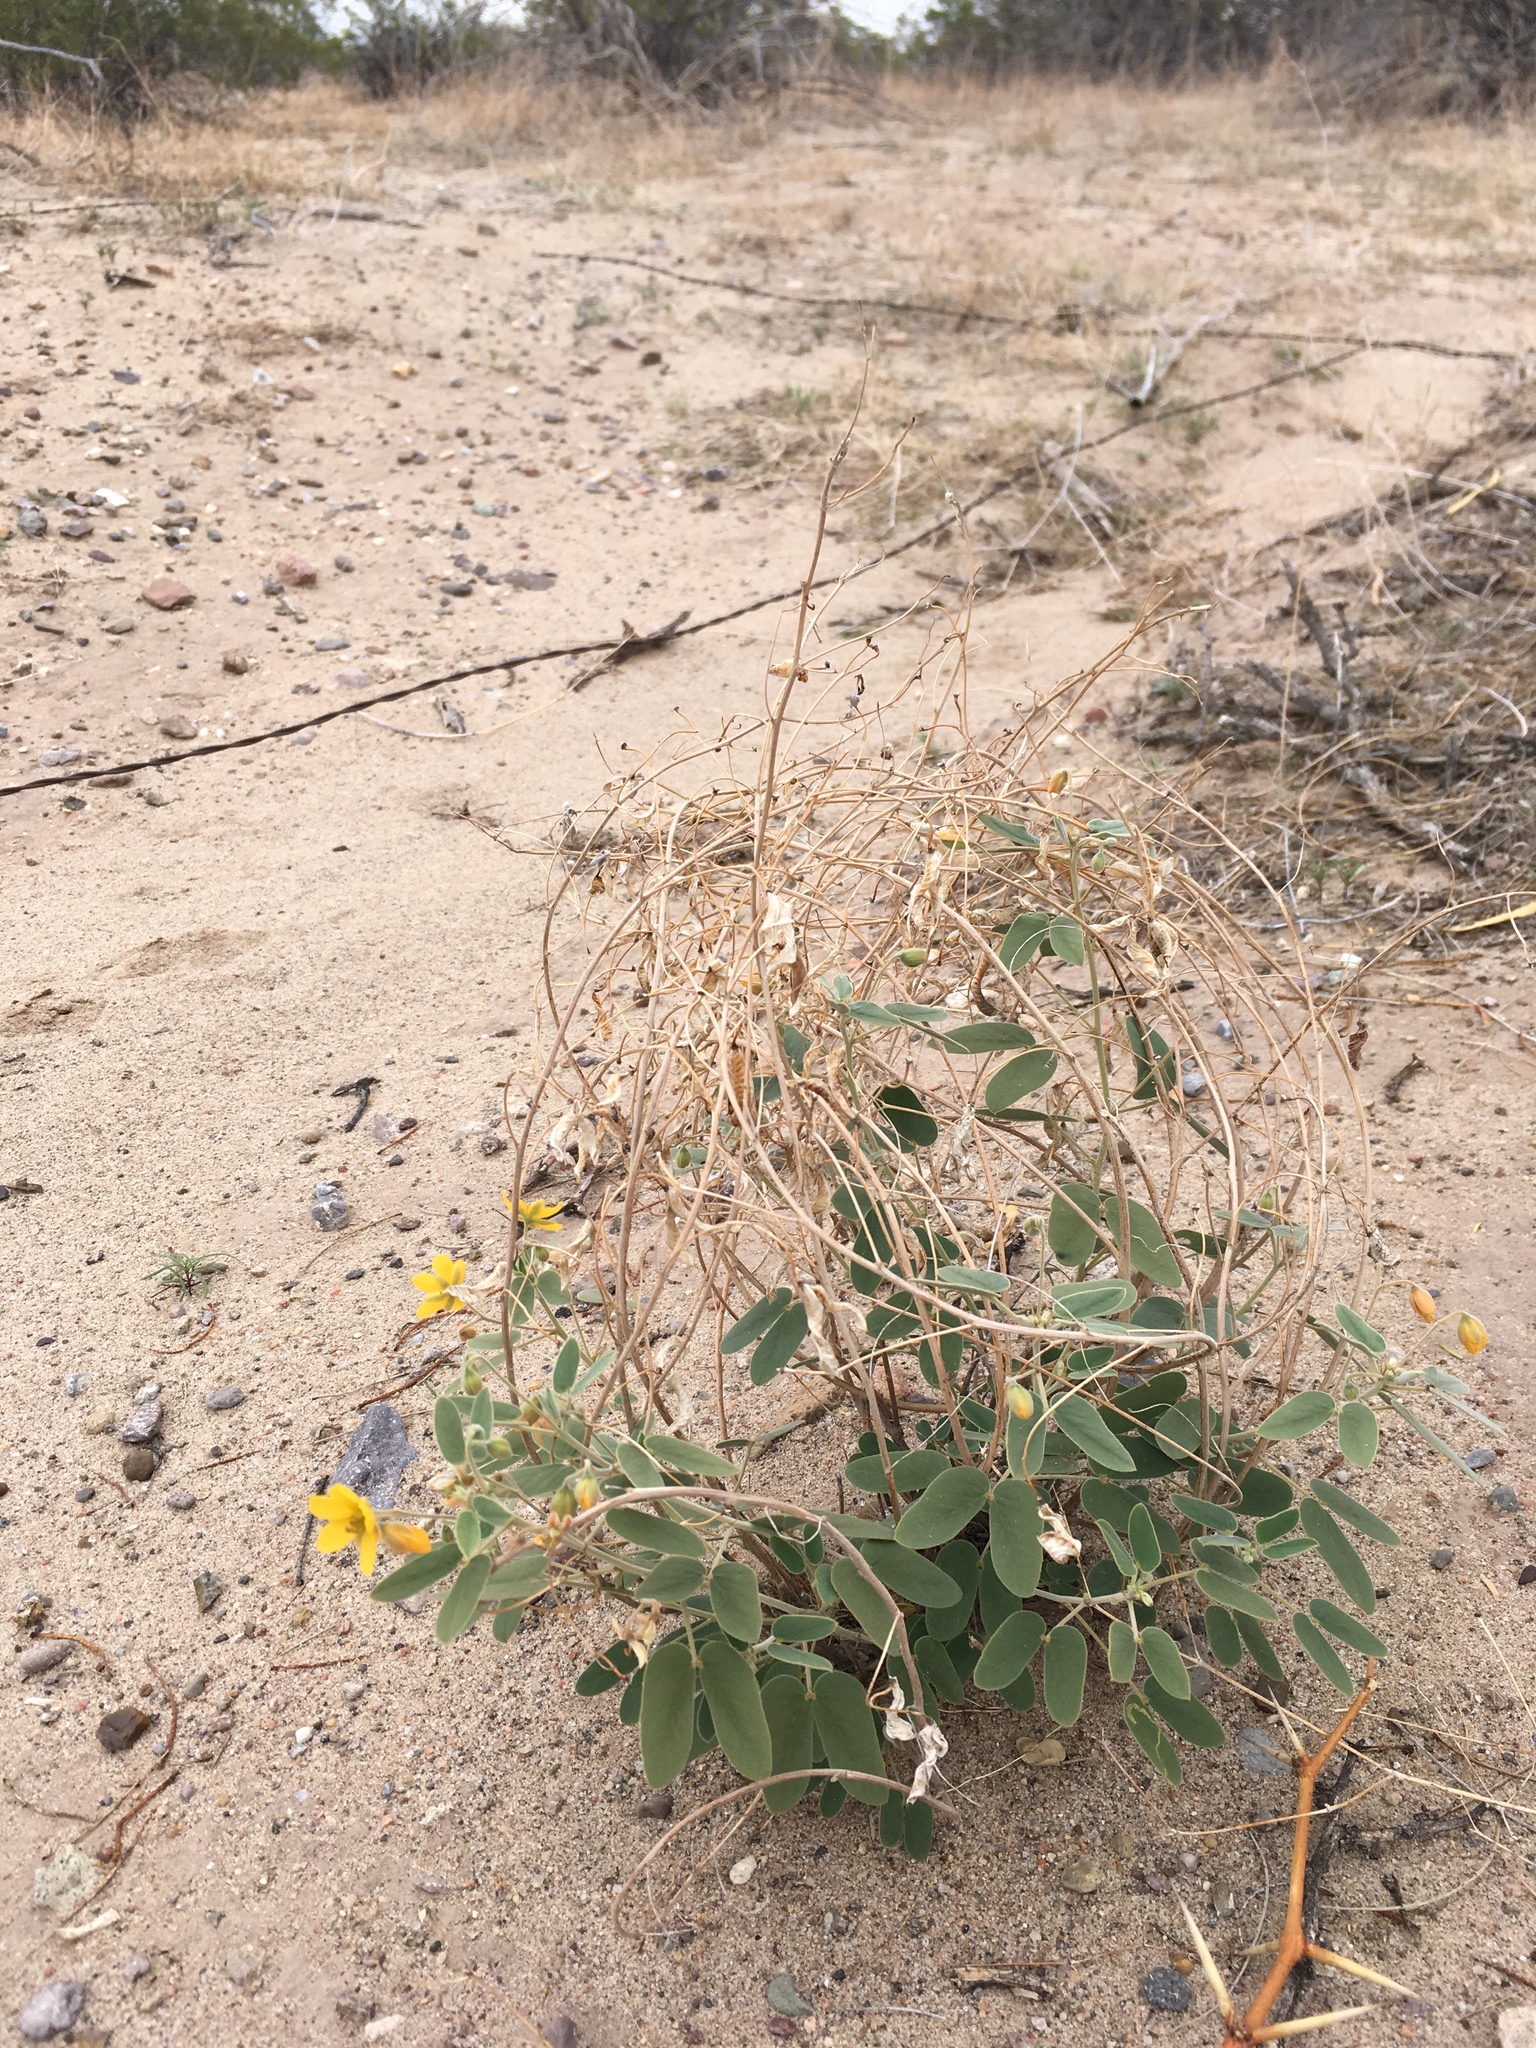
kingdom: Plantae
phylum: Tracheophyta
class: Magnoliopsida
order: Fabales
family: Fabaceae
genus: Senna
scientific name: Senna bauhinioides
